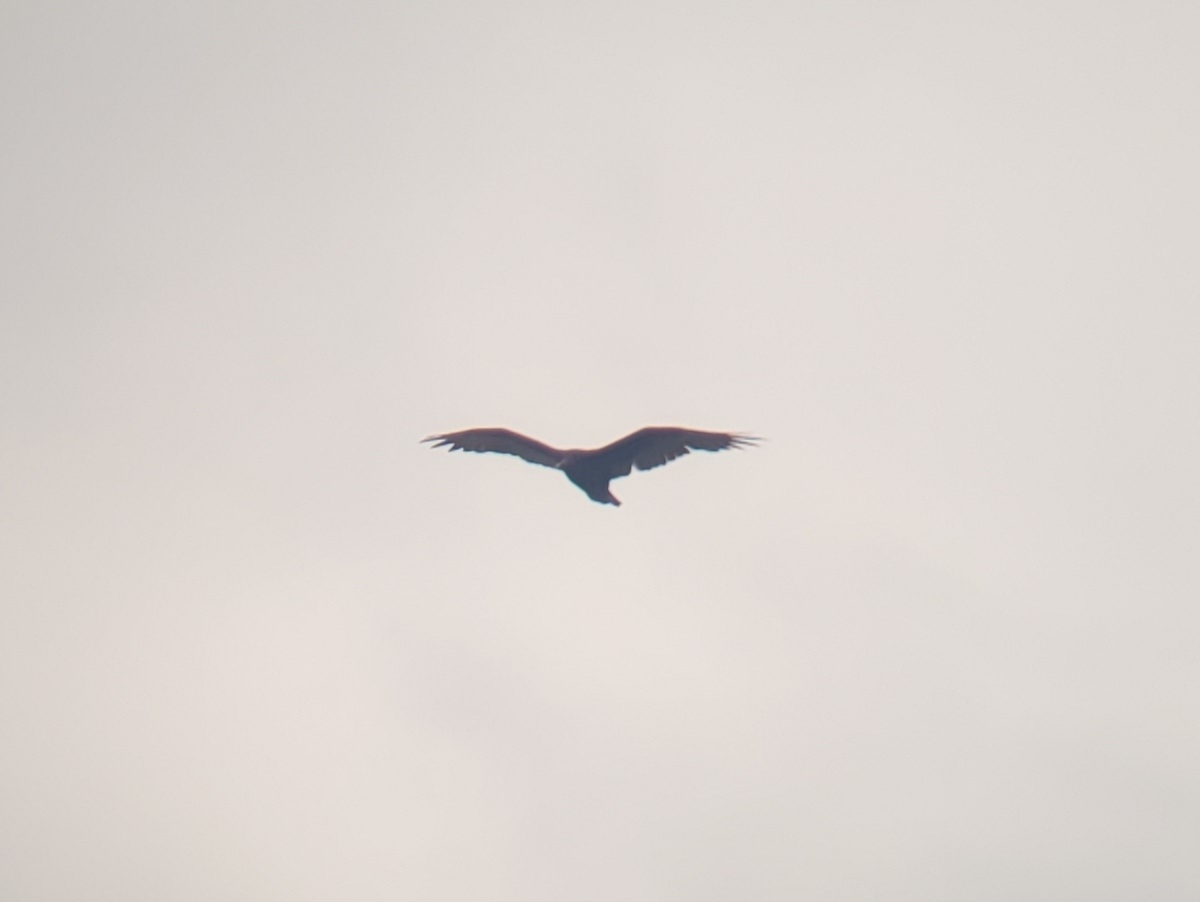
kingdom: Animalia
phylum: Chordata
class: Aves
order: Accipitriformes
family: Cathartidae
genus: Cathartes
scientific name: Cathartes aura
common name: Turkey vulture
